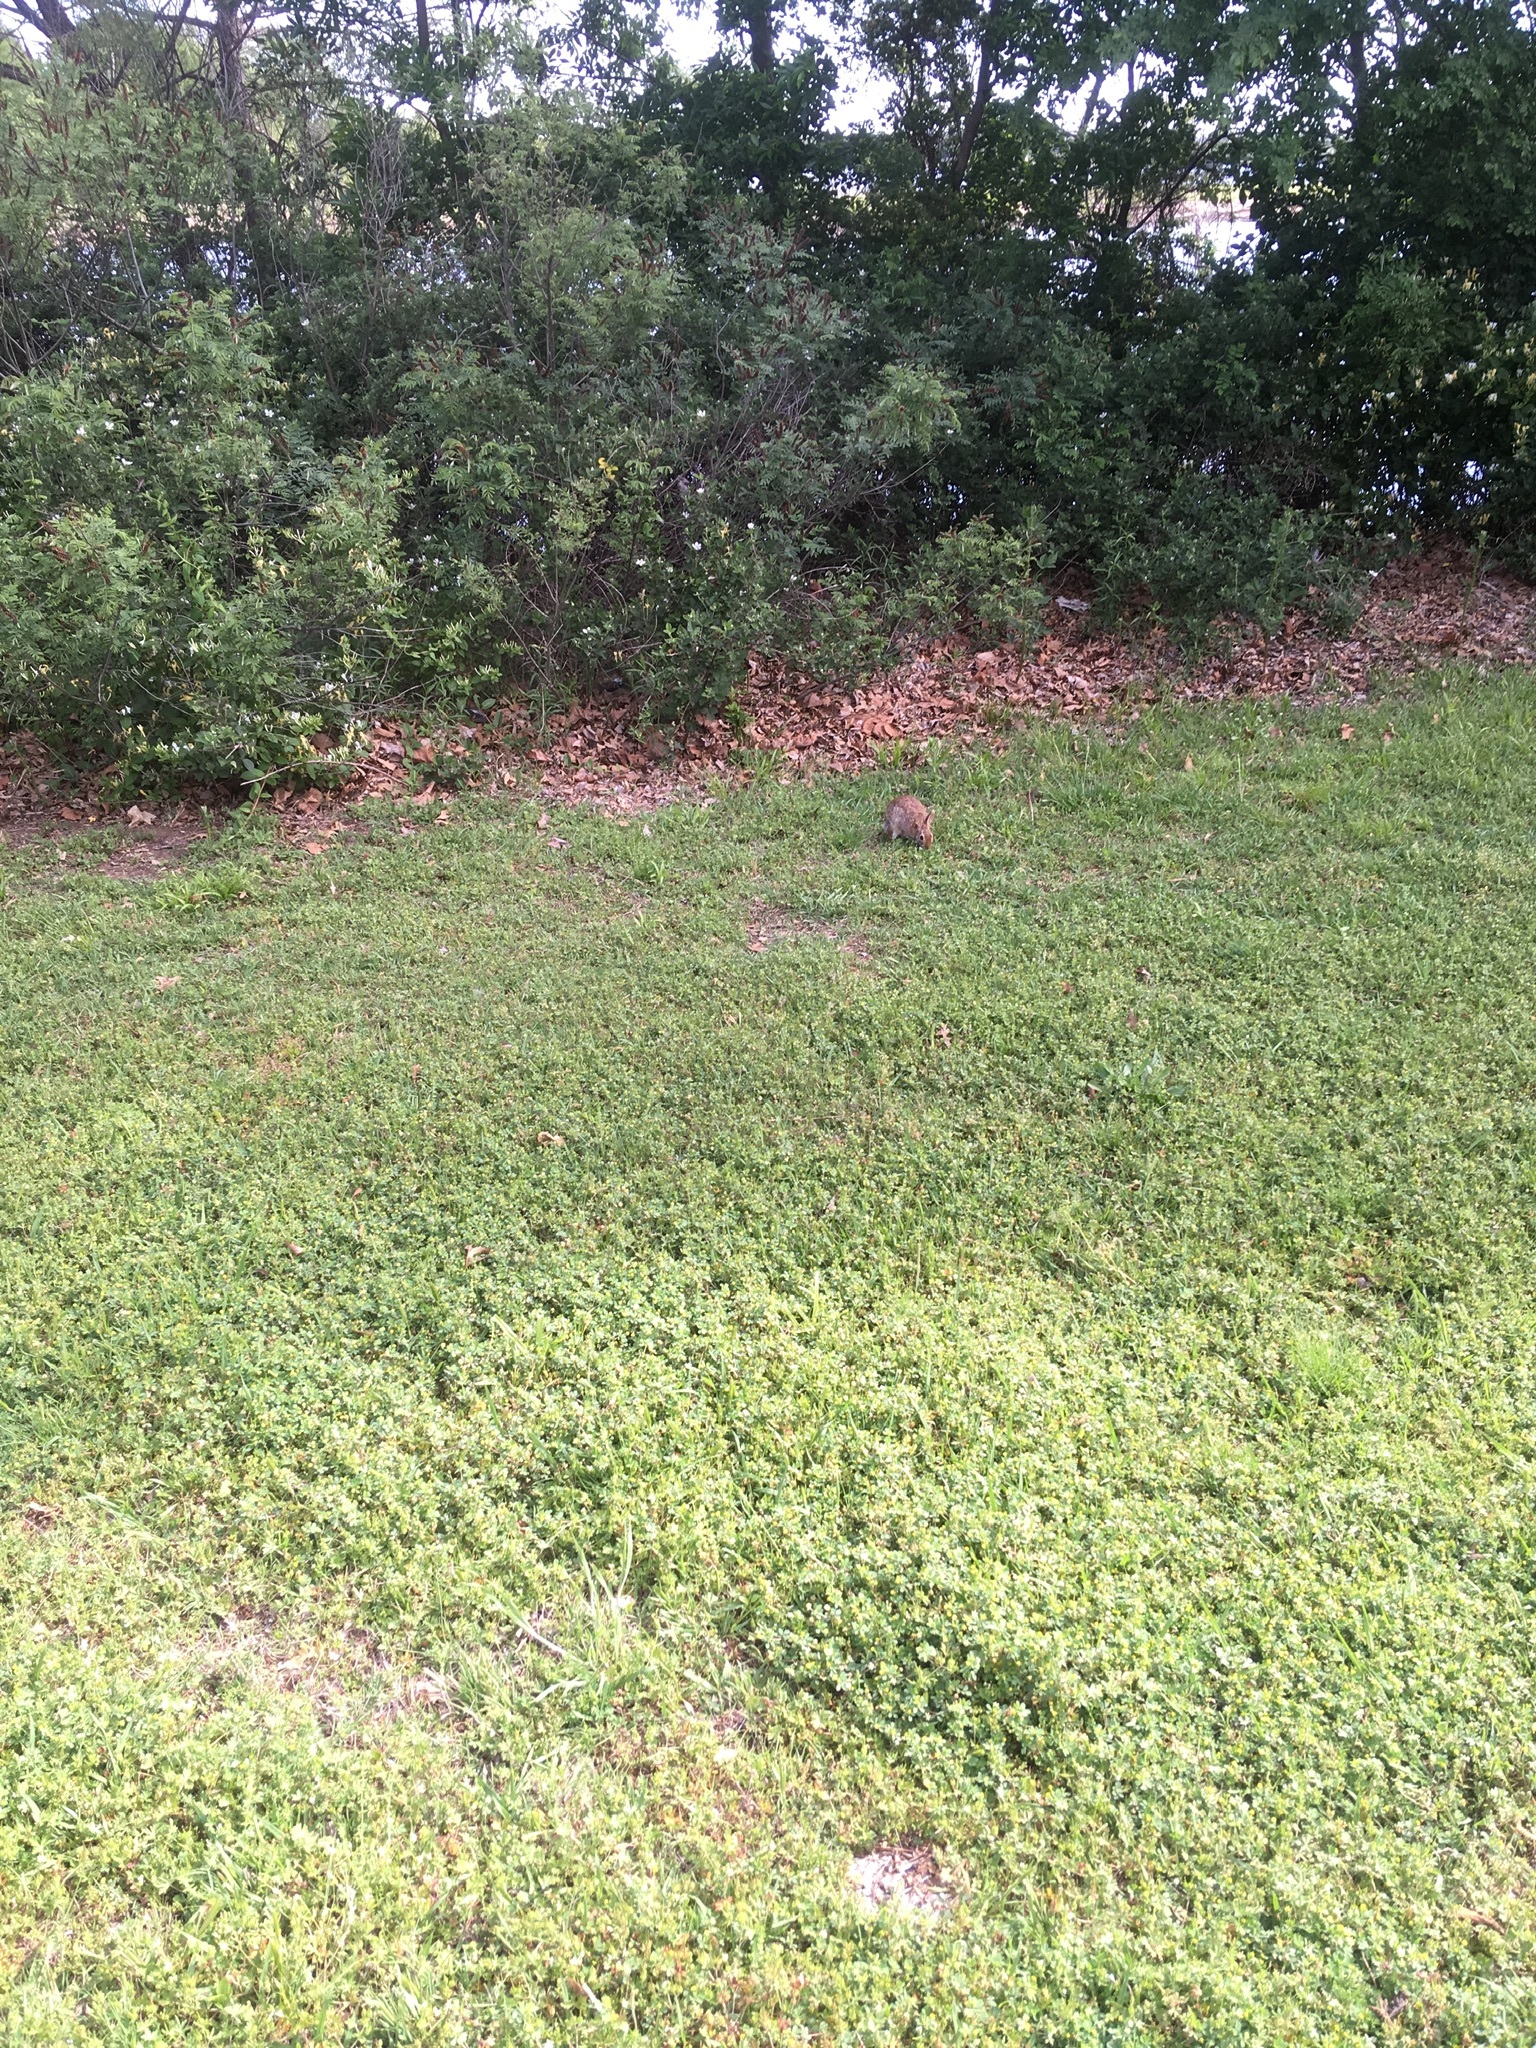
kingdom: Animalia
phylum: Chordata
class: Mammalia
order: Lagomorpha
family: Leporidae
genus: Sylvilagus
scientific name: Sylvilagus floridanus
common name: Eastern cottontail
